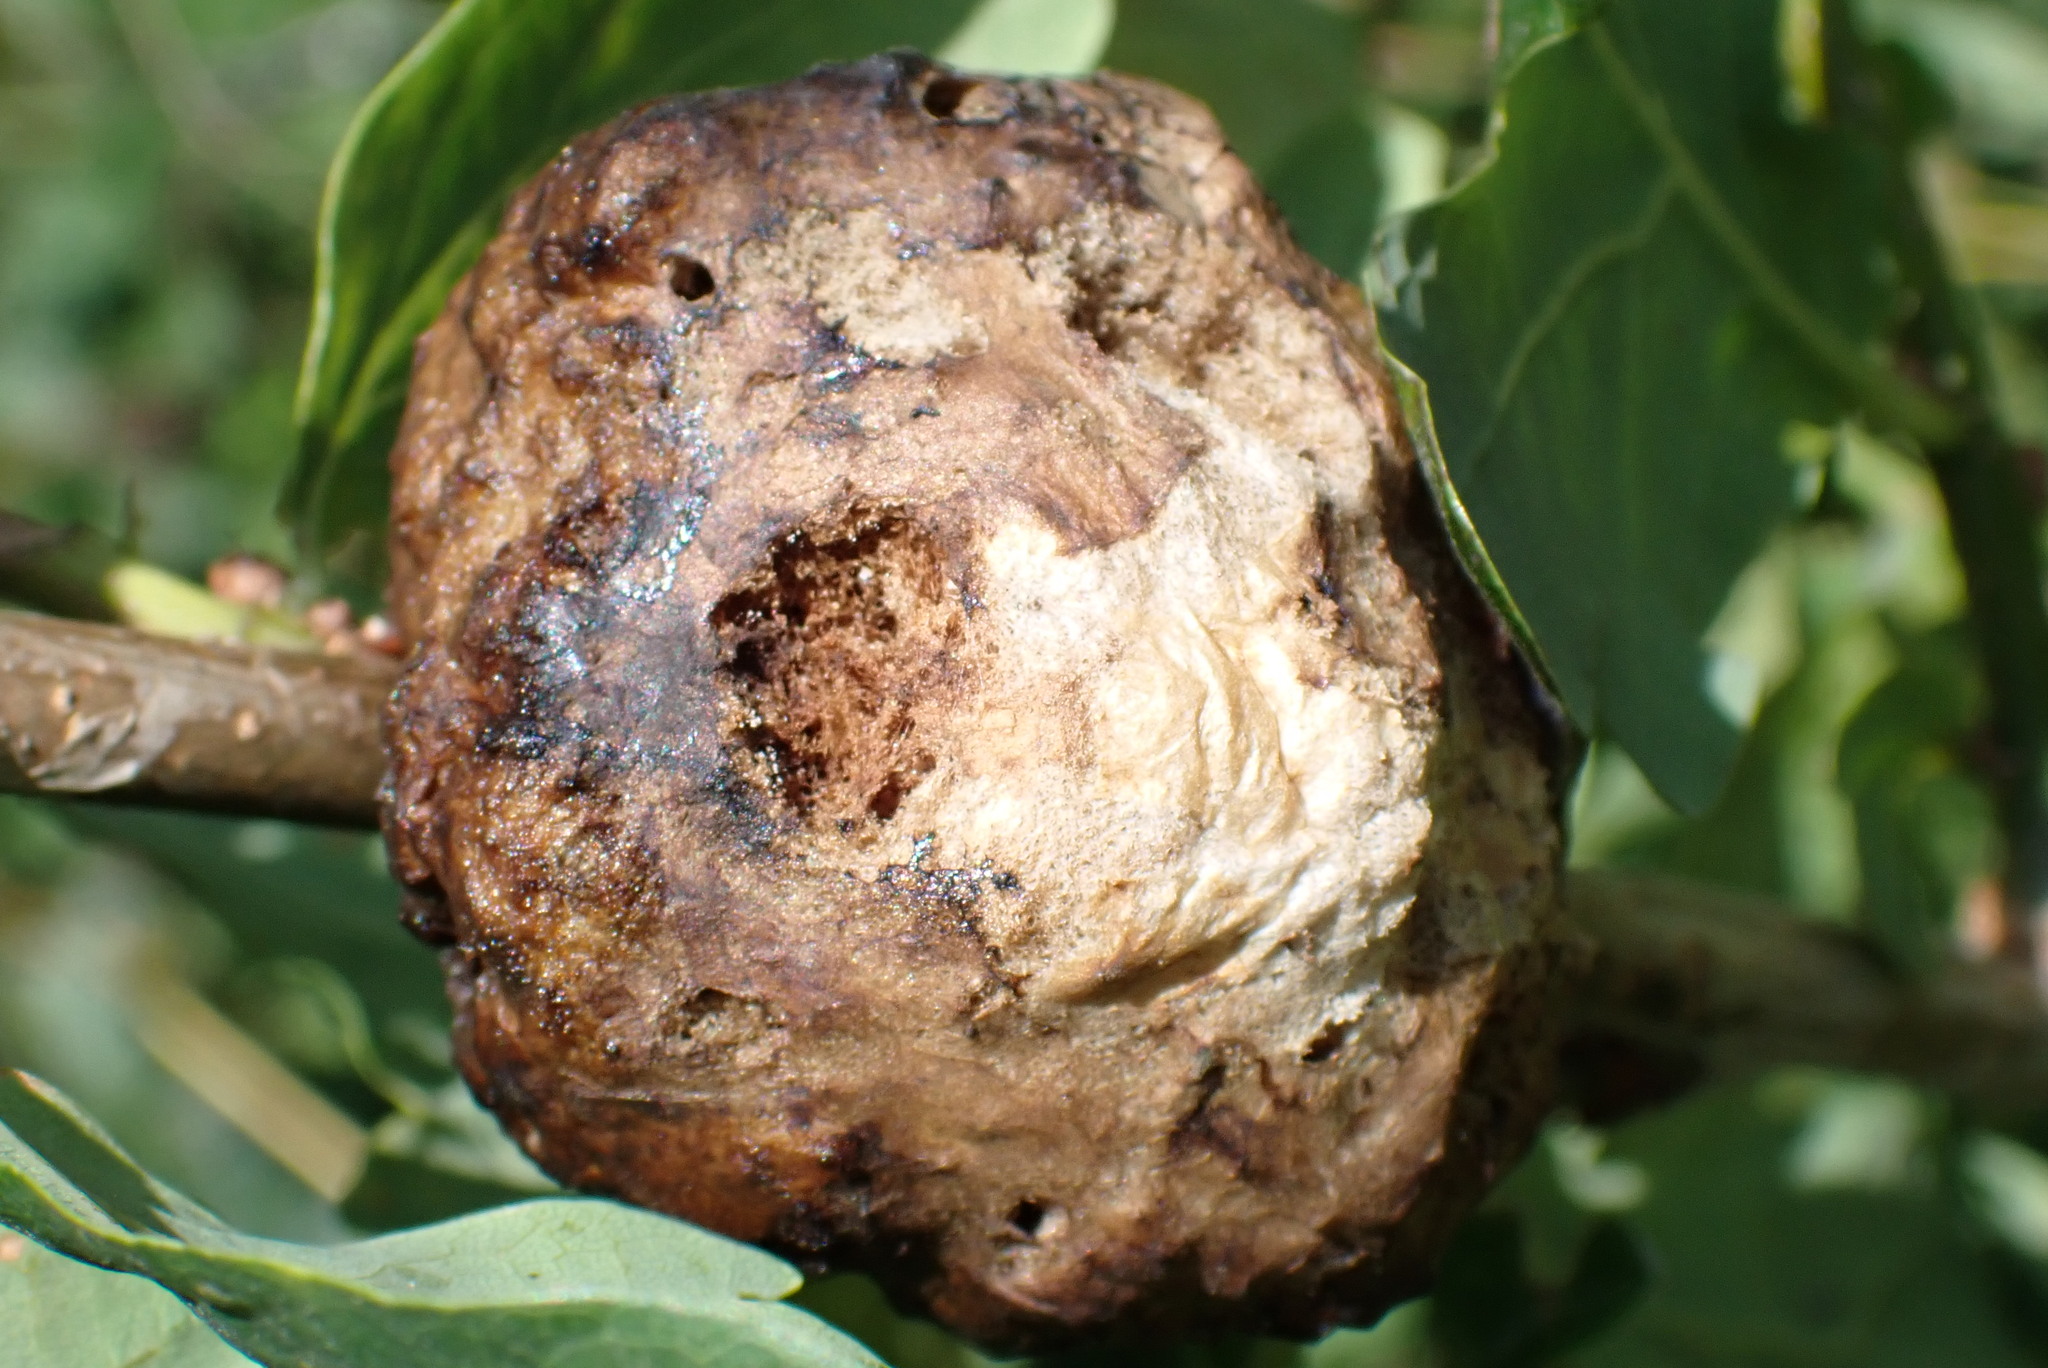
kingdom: Animalia
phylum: Arthropoda
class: Insecta
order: Hymenoptera
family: Cynipidae
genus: Biorhiza
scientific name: Biorhiza pallida
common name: Oak apple
